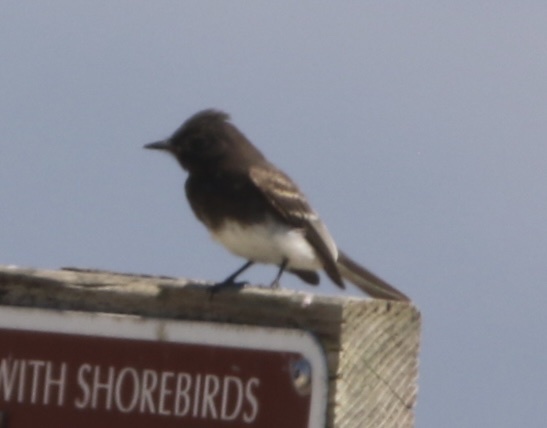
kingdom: Animalia
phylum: Chordata
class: Aves
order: Passeriformes
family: Tyrannidae
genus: Sayornis
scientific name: Sayornis nigricans
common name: Black phoebe
